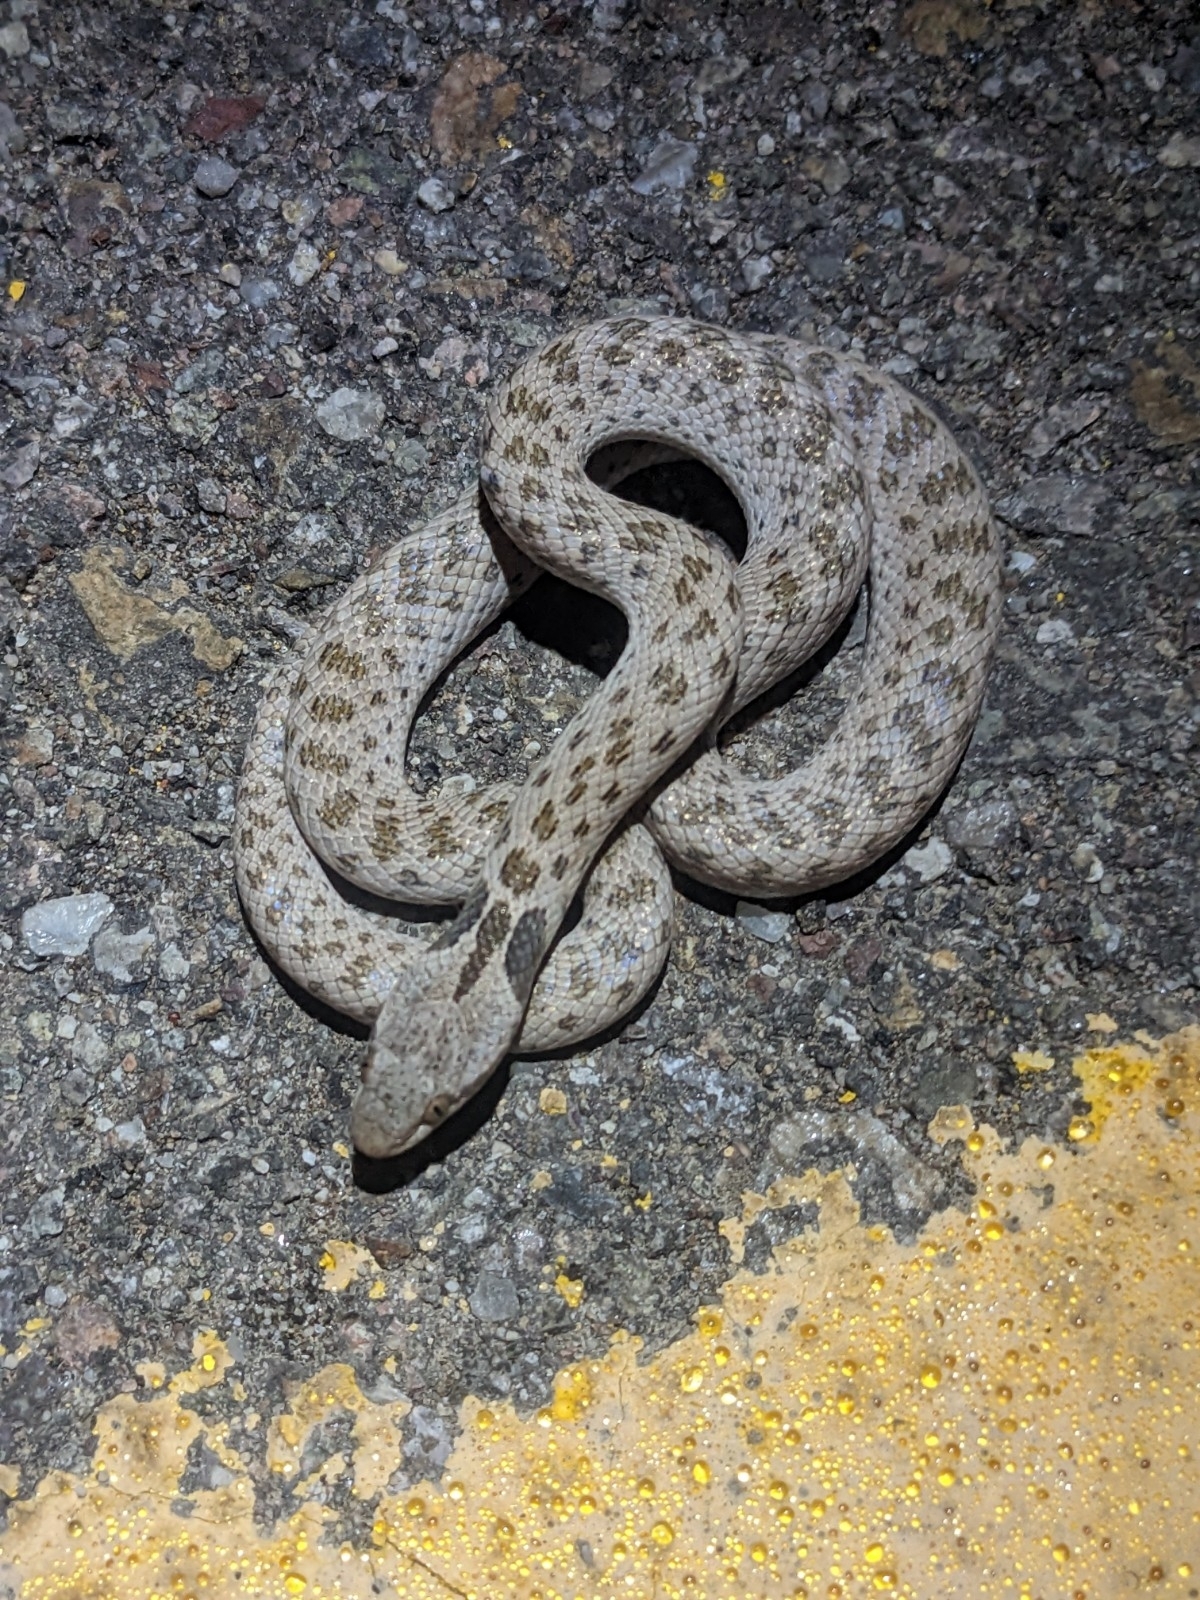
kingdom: Animalia
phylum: Chordata
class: Squamata
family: Colubridae
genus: Hypsiglena
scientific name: Hypsiglena chlorophaea
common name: Desert nightsnake
